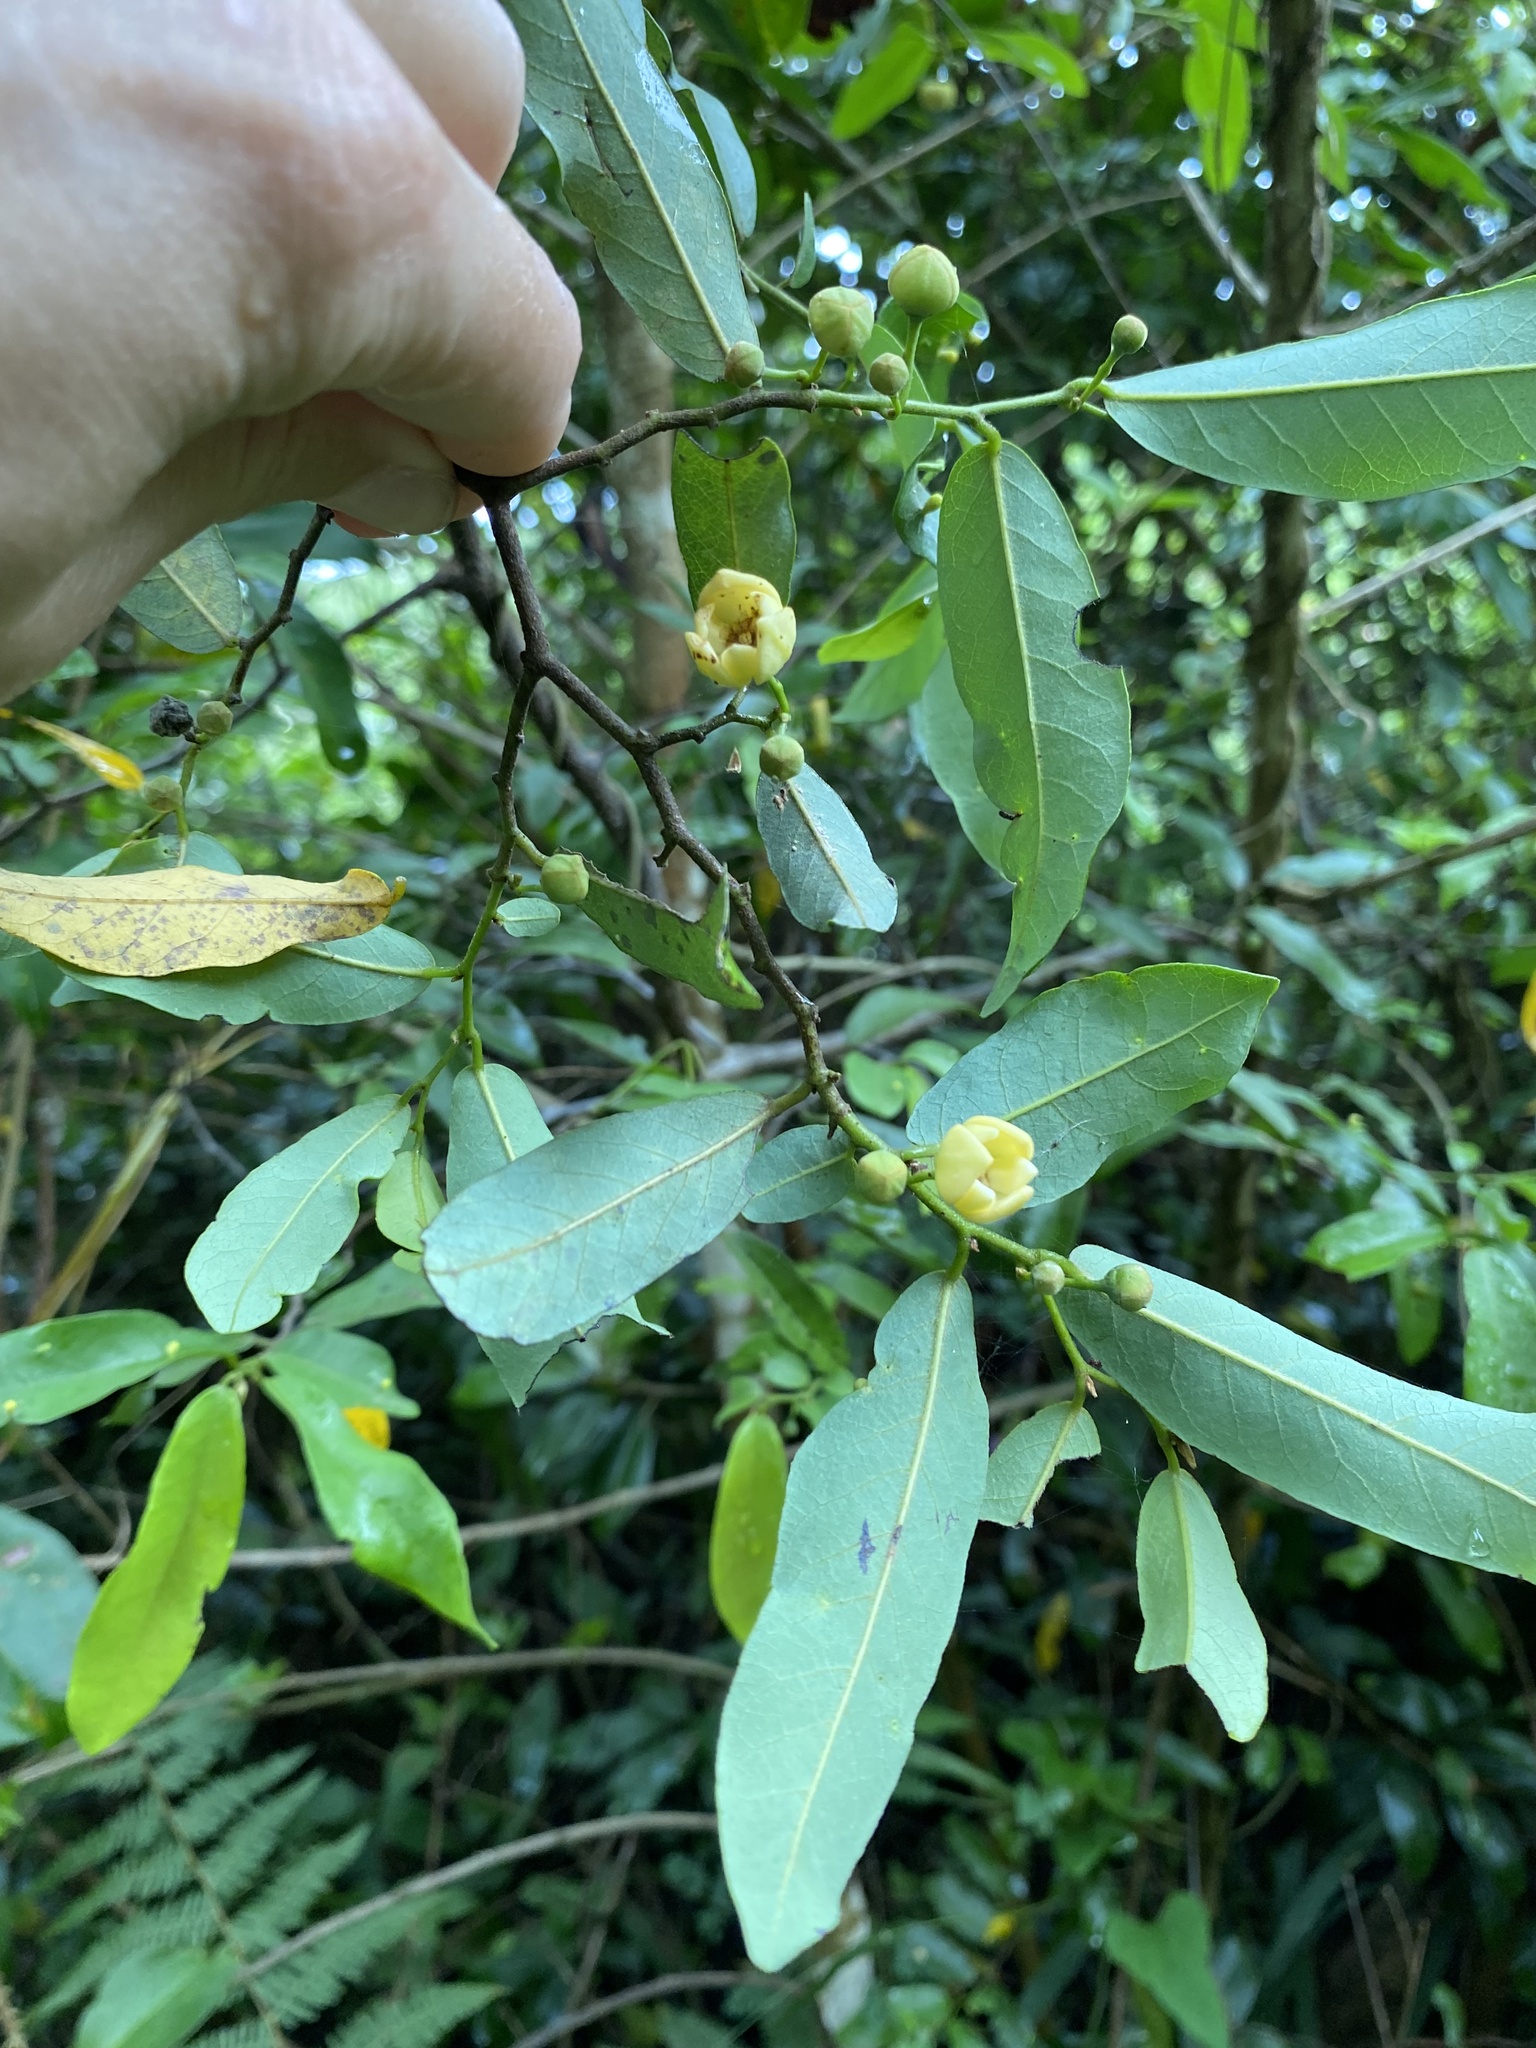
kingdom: Plantae
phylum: Tracheophyta
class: Magnoliopsida
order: Magnoliales
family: Annonaceae
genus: Monanthotaxis
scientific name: Monanthotaxis caffra
